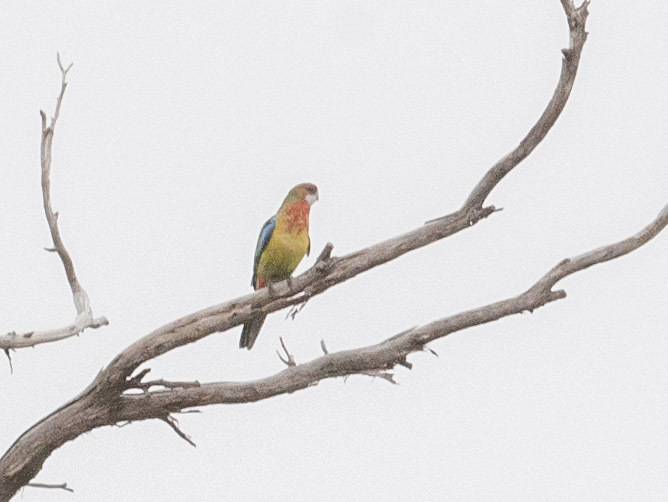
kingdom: Animalia
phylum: Chordata
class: Aves
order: Psittaciformes
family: Psittacidae
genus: Platycercus
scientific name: Platycercus eximius
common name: Eastern rosella
